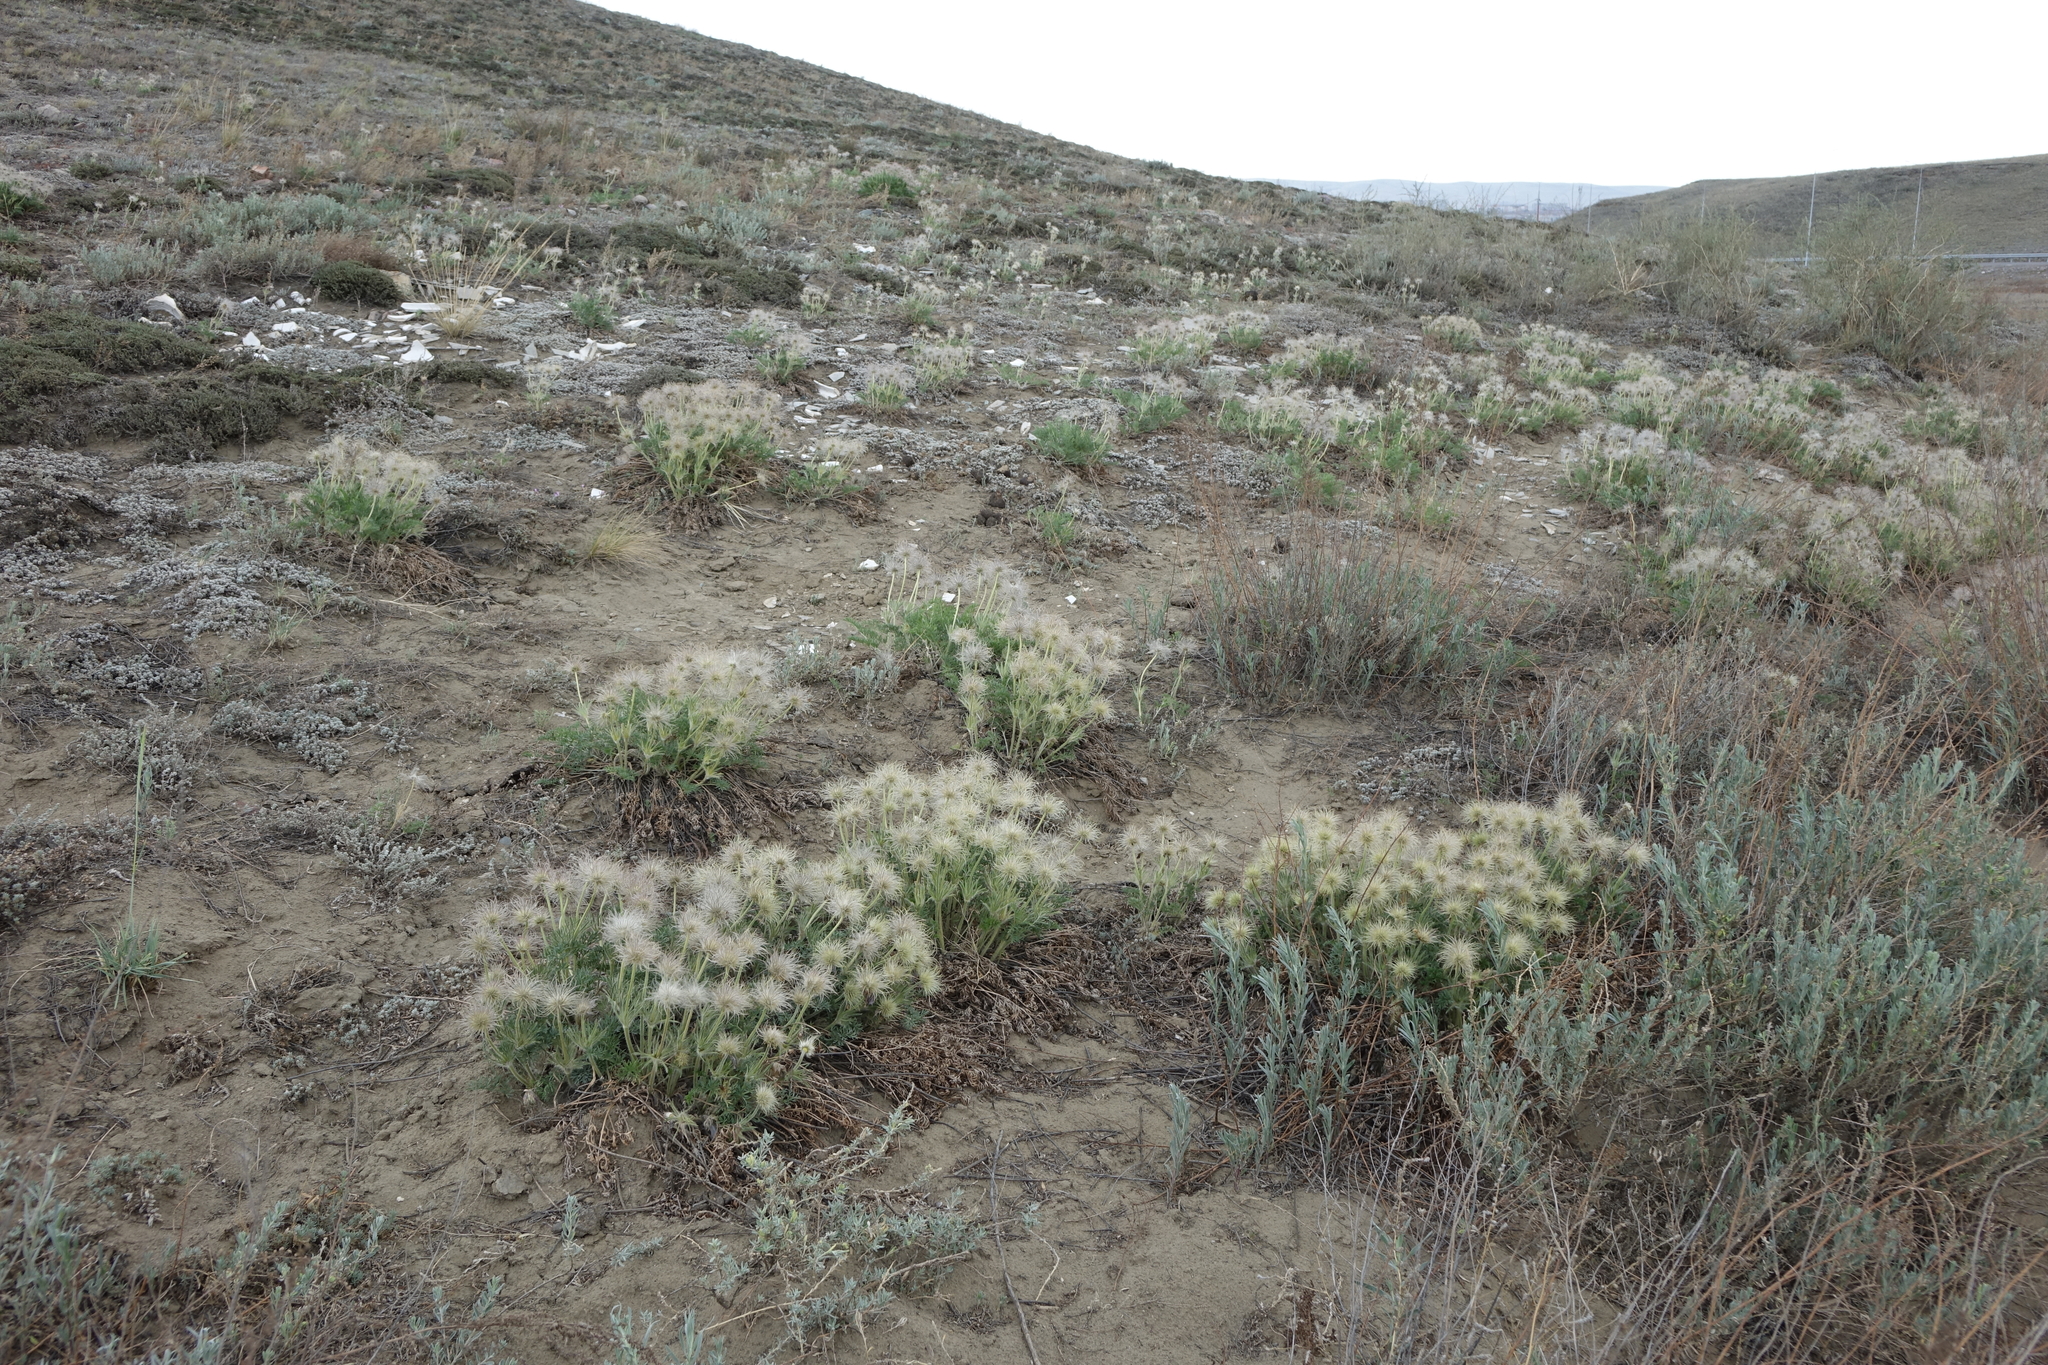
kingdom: Plantae
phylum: Tracheophyta
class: Magnoliopsida
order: Ranunculales
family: Ranunculaceae
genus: Pulsatilla
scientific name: Pulsatilla turczaninovii
